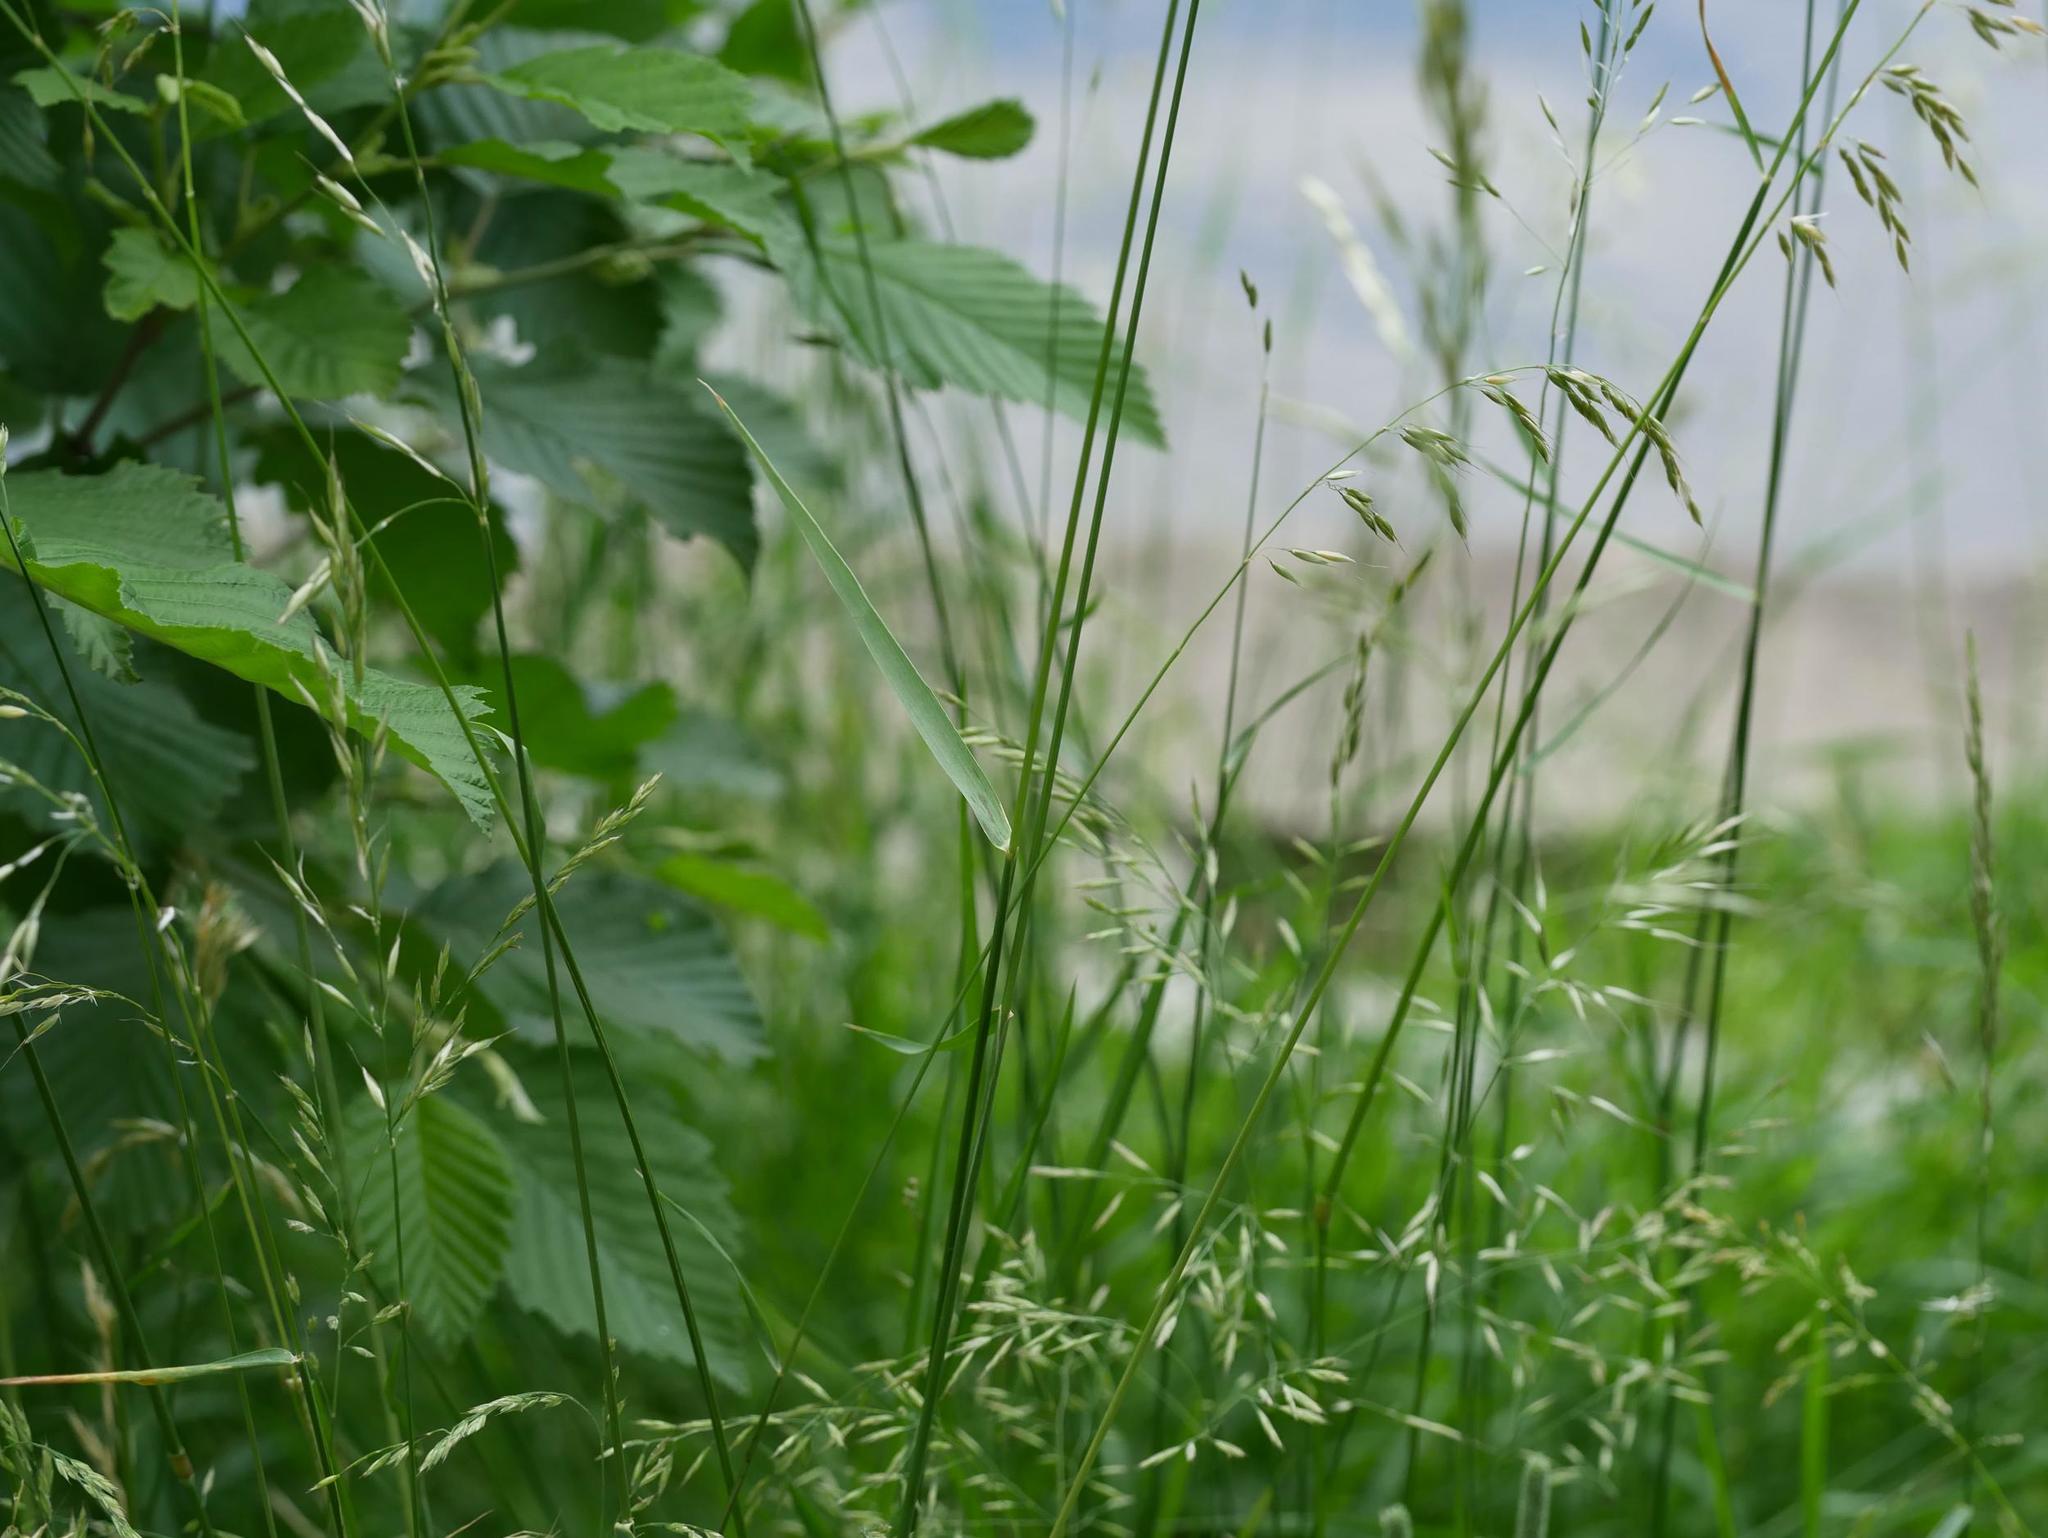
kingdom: Plantae
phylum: Tracheophyta
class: Liliopsida
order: Poales
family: Poaceae
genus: Arrhenatherum
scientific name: Arrhenatherum elatius
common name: Tall oatgrass
